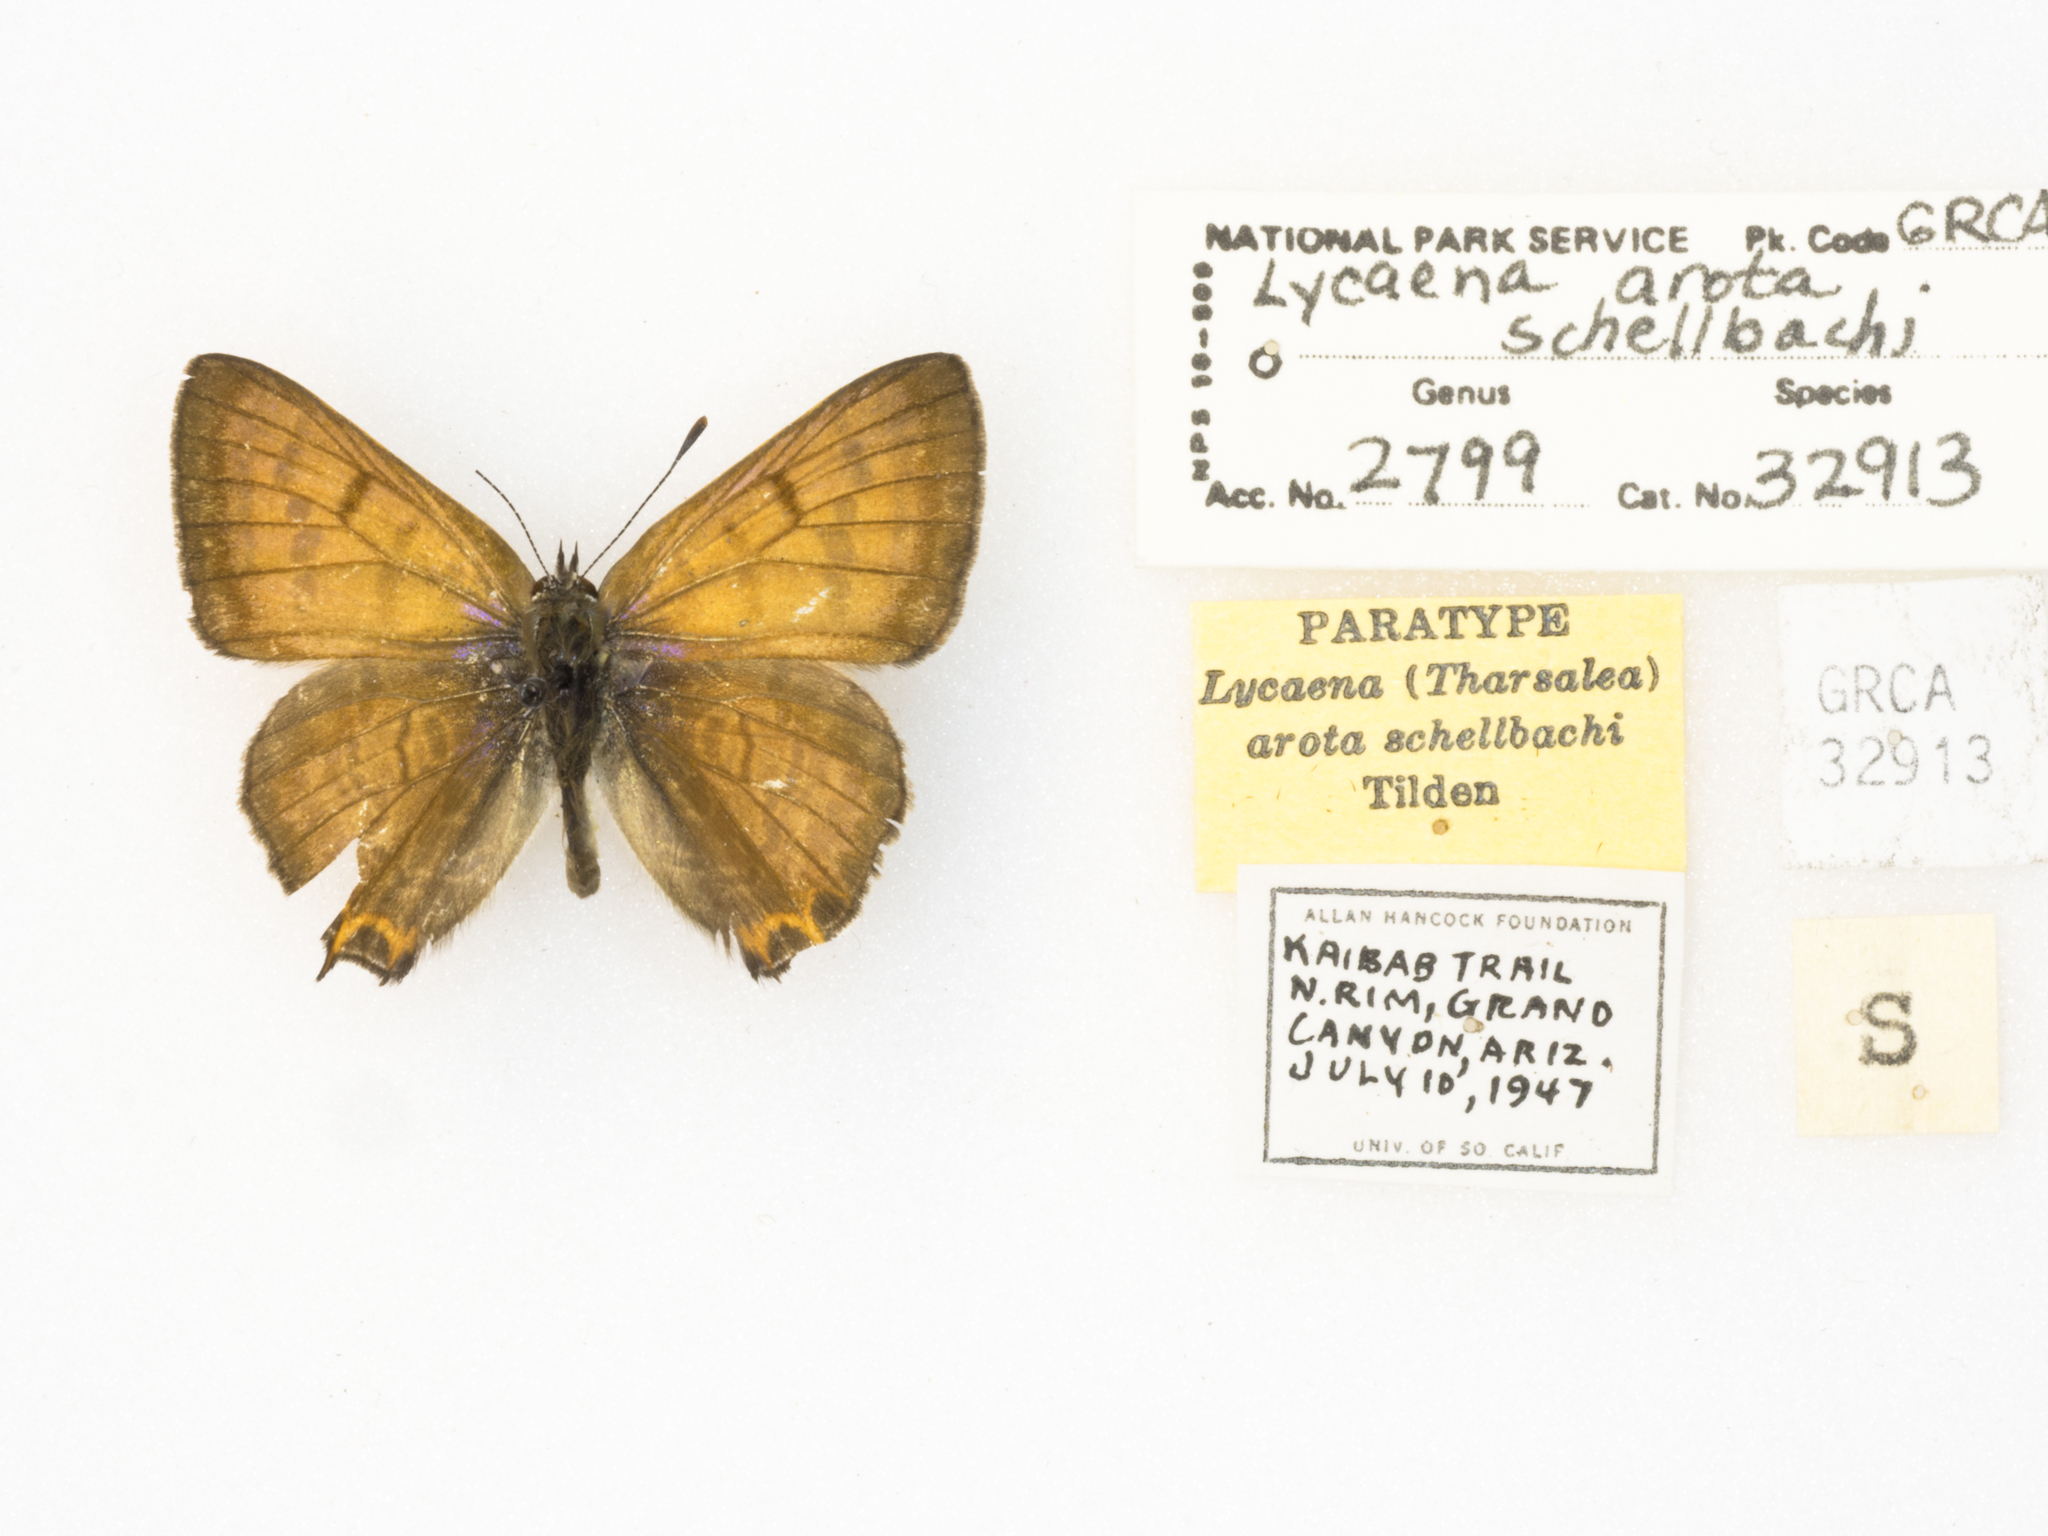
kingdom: Animalia
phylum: Arthropoda
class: Insecta
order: Lepidoptera
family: Lycaenidae
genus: Tharsalea
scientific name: Tharsalea arota
